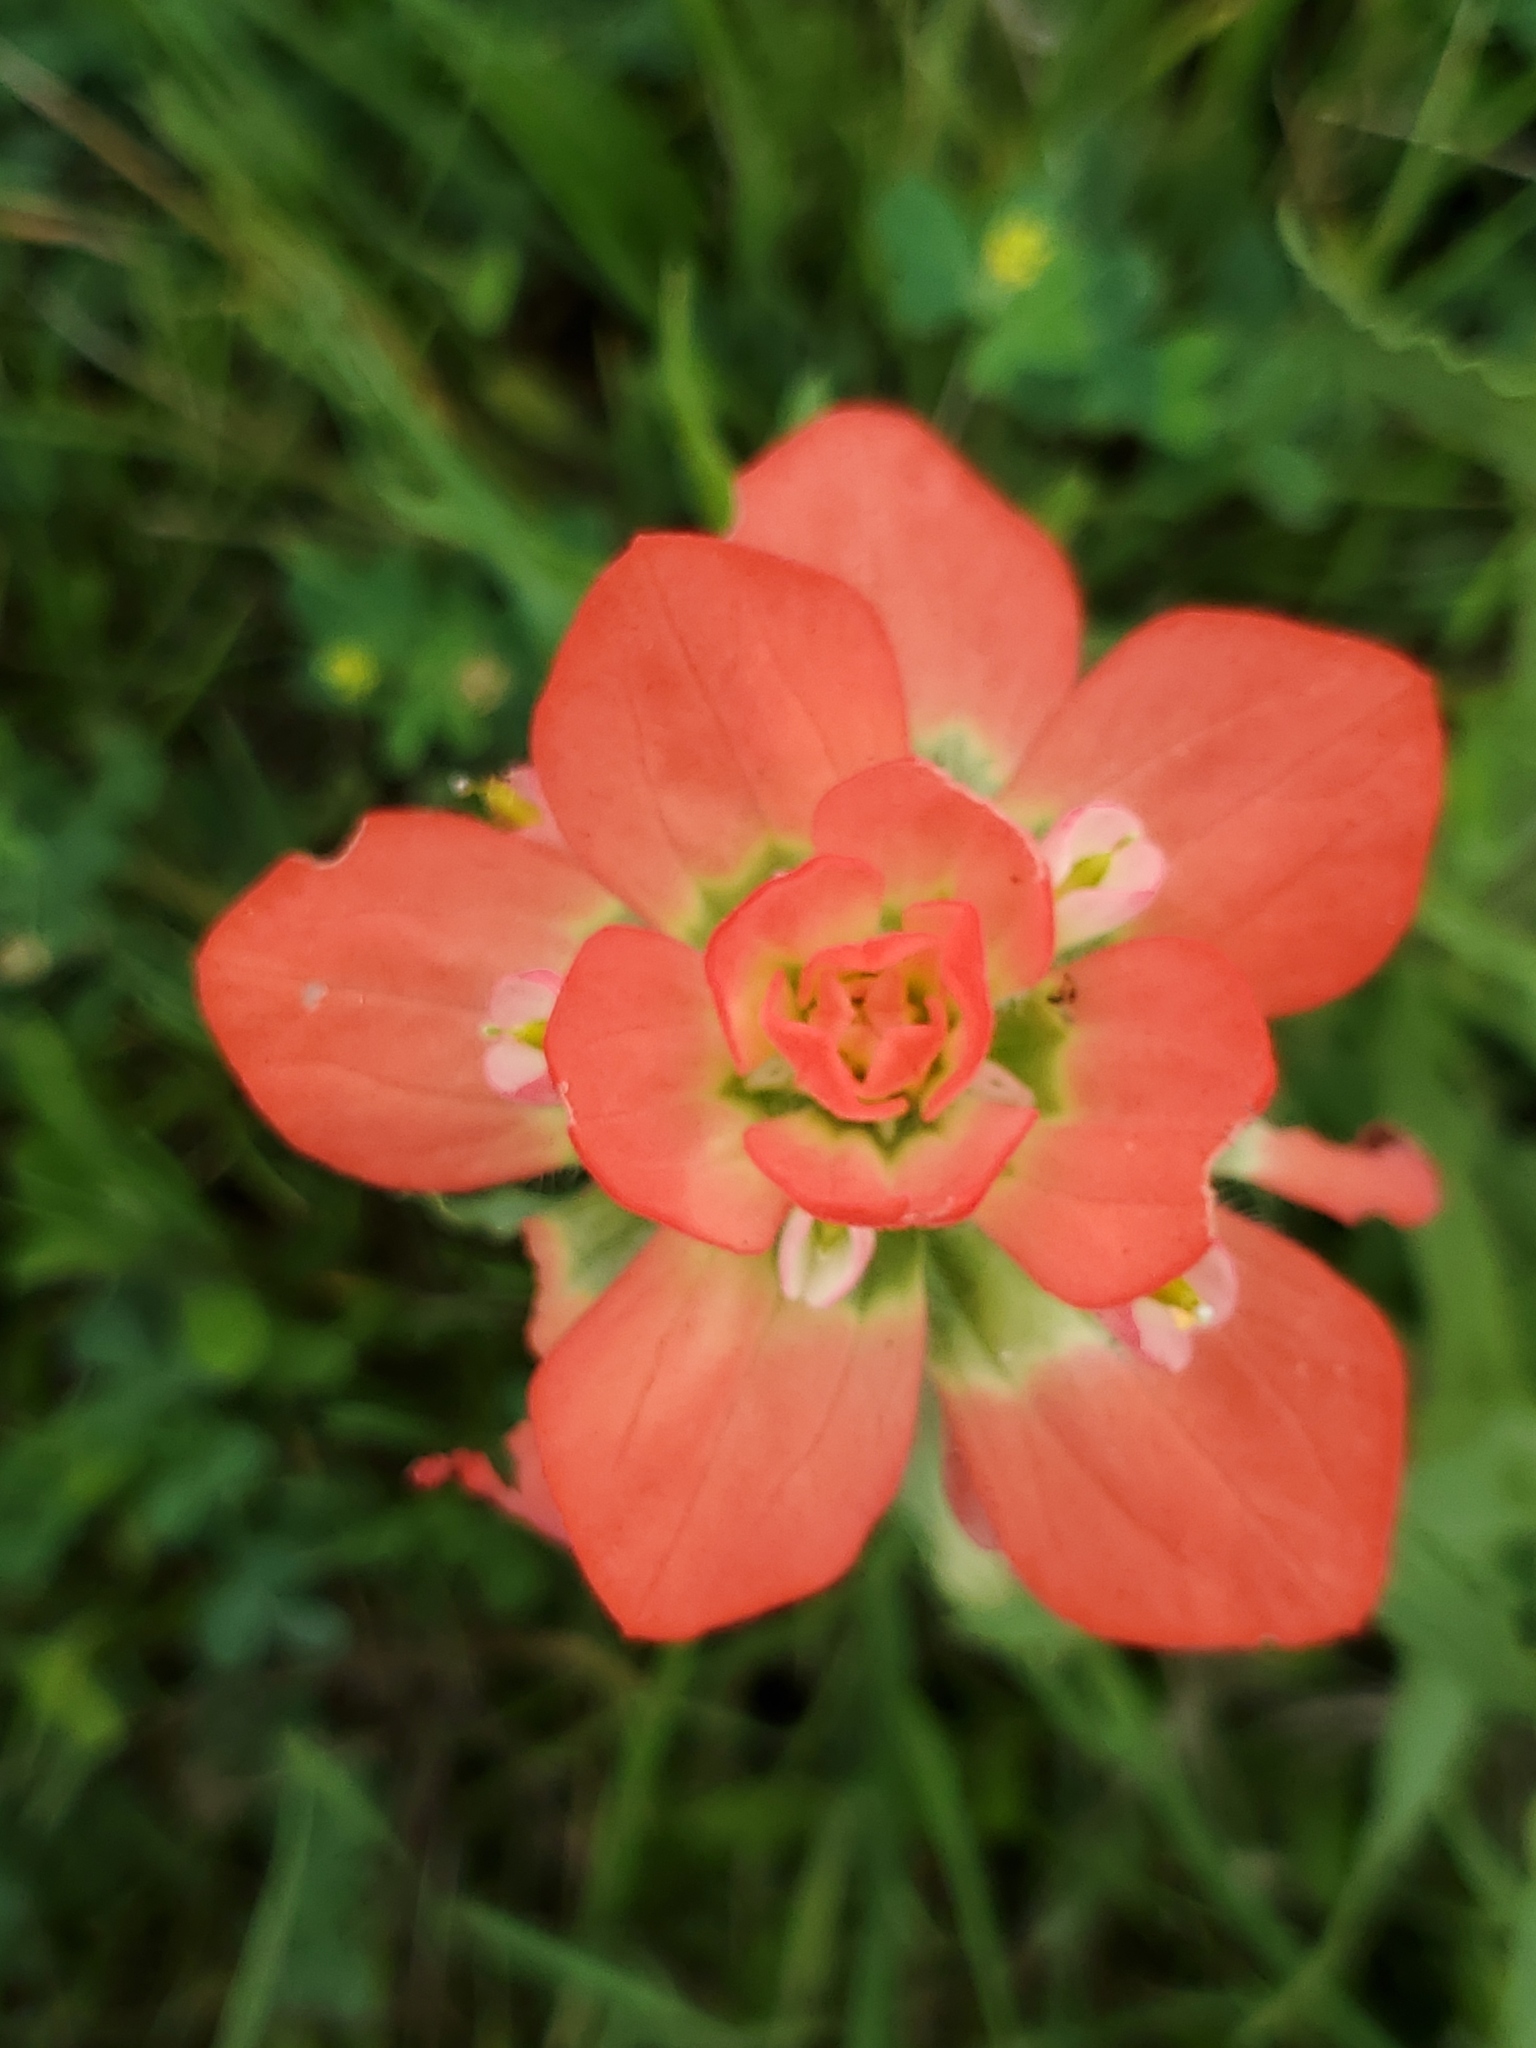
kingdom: Plantae
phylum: Tracheophyta
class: Magnoliopsida
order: Lamiales
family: Orobanchaceae
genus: Castilleja
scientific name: Castilleja indivisa
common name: Texas paintbrush
